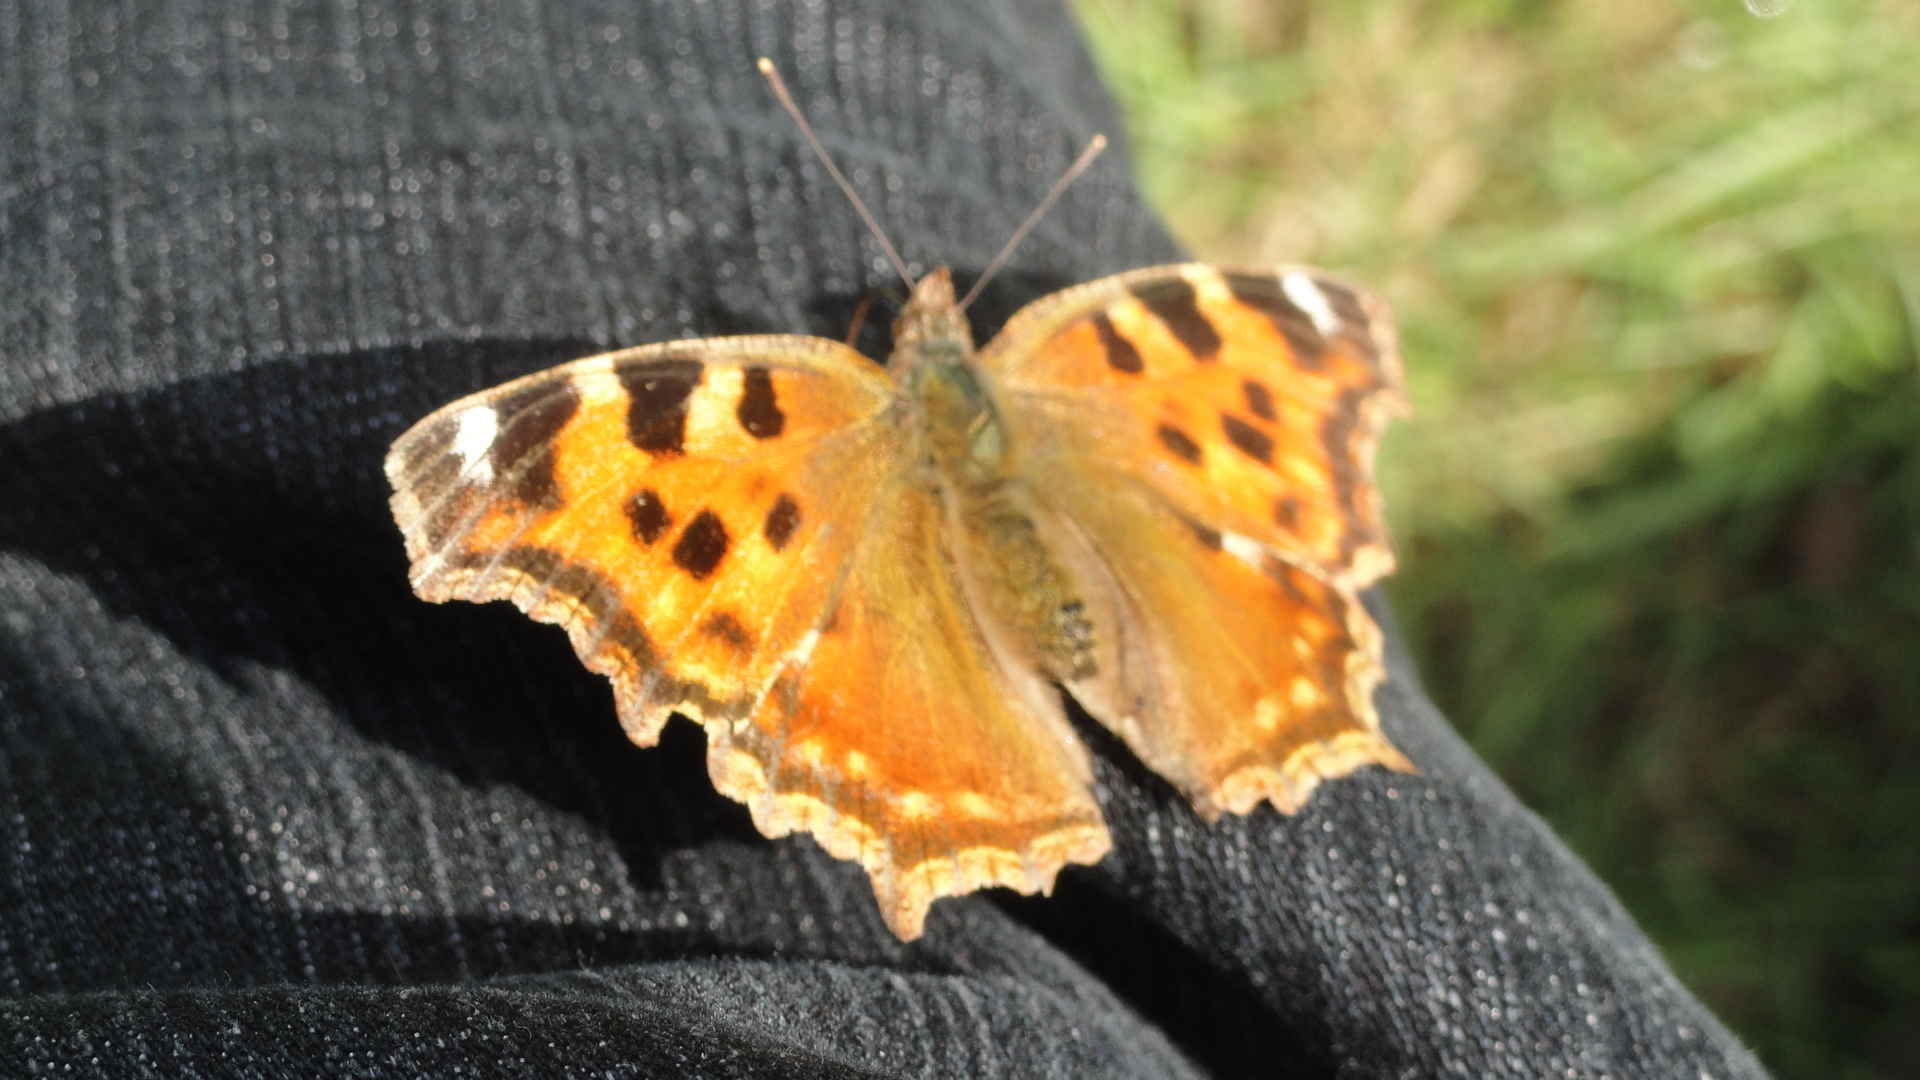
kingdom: Animalia
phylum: Arthropoda
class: Insecta
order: Lepidoptera
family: Nymphalidae
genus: Polygonia
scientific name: Polygonia vaualbum
